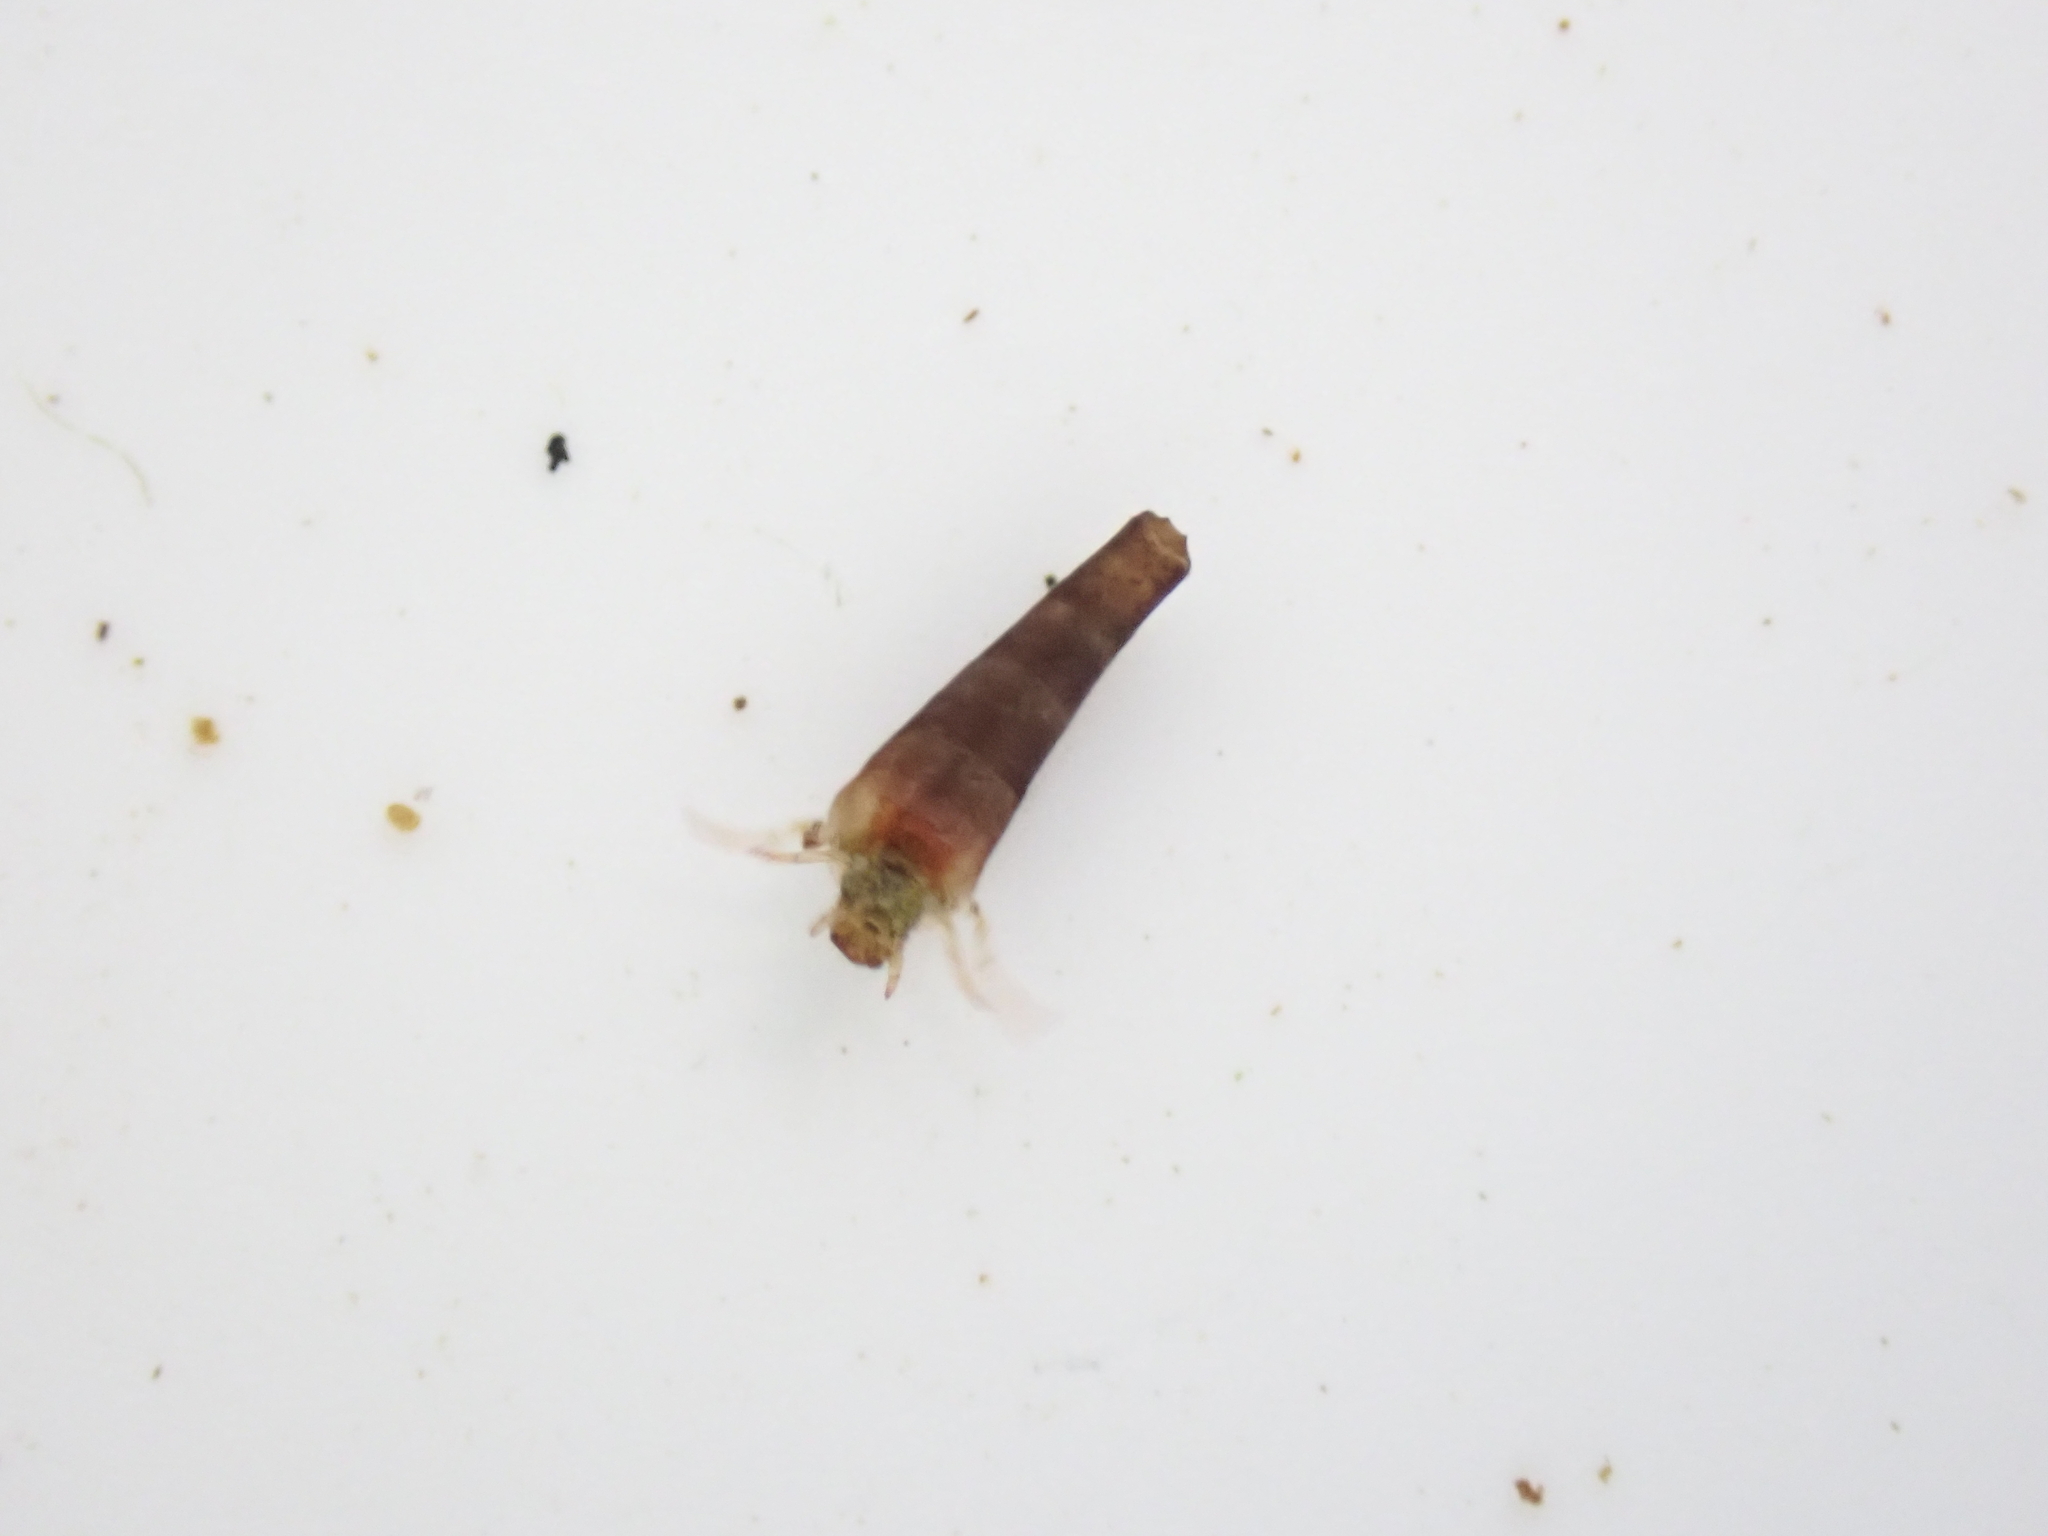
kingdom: Animalia
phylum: Arthropoda
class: Insecta
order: Trichoptera
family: Conoesucidae
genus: Beraeoptera
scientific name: Beraeoptera roria
